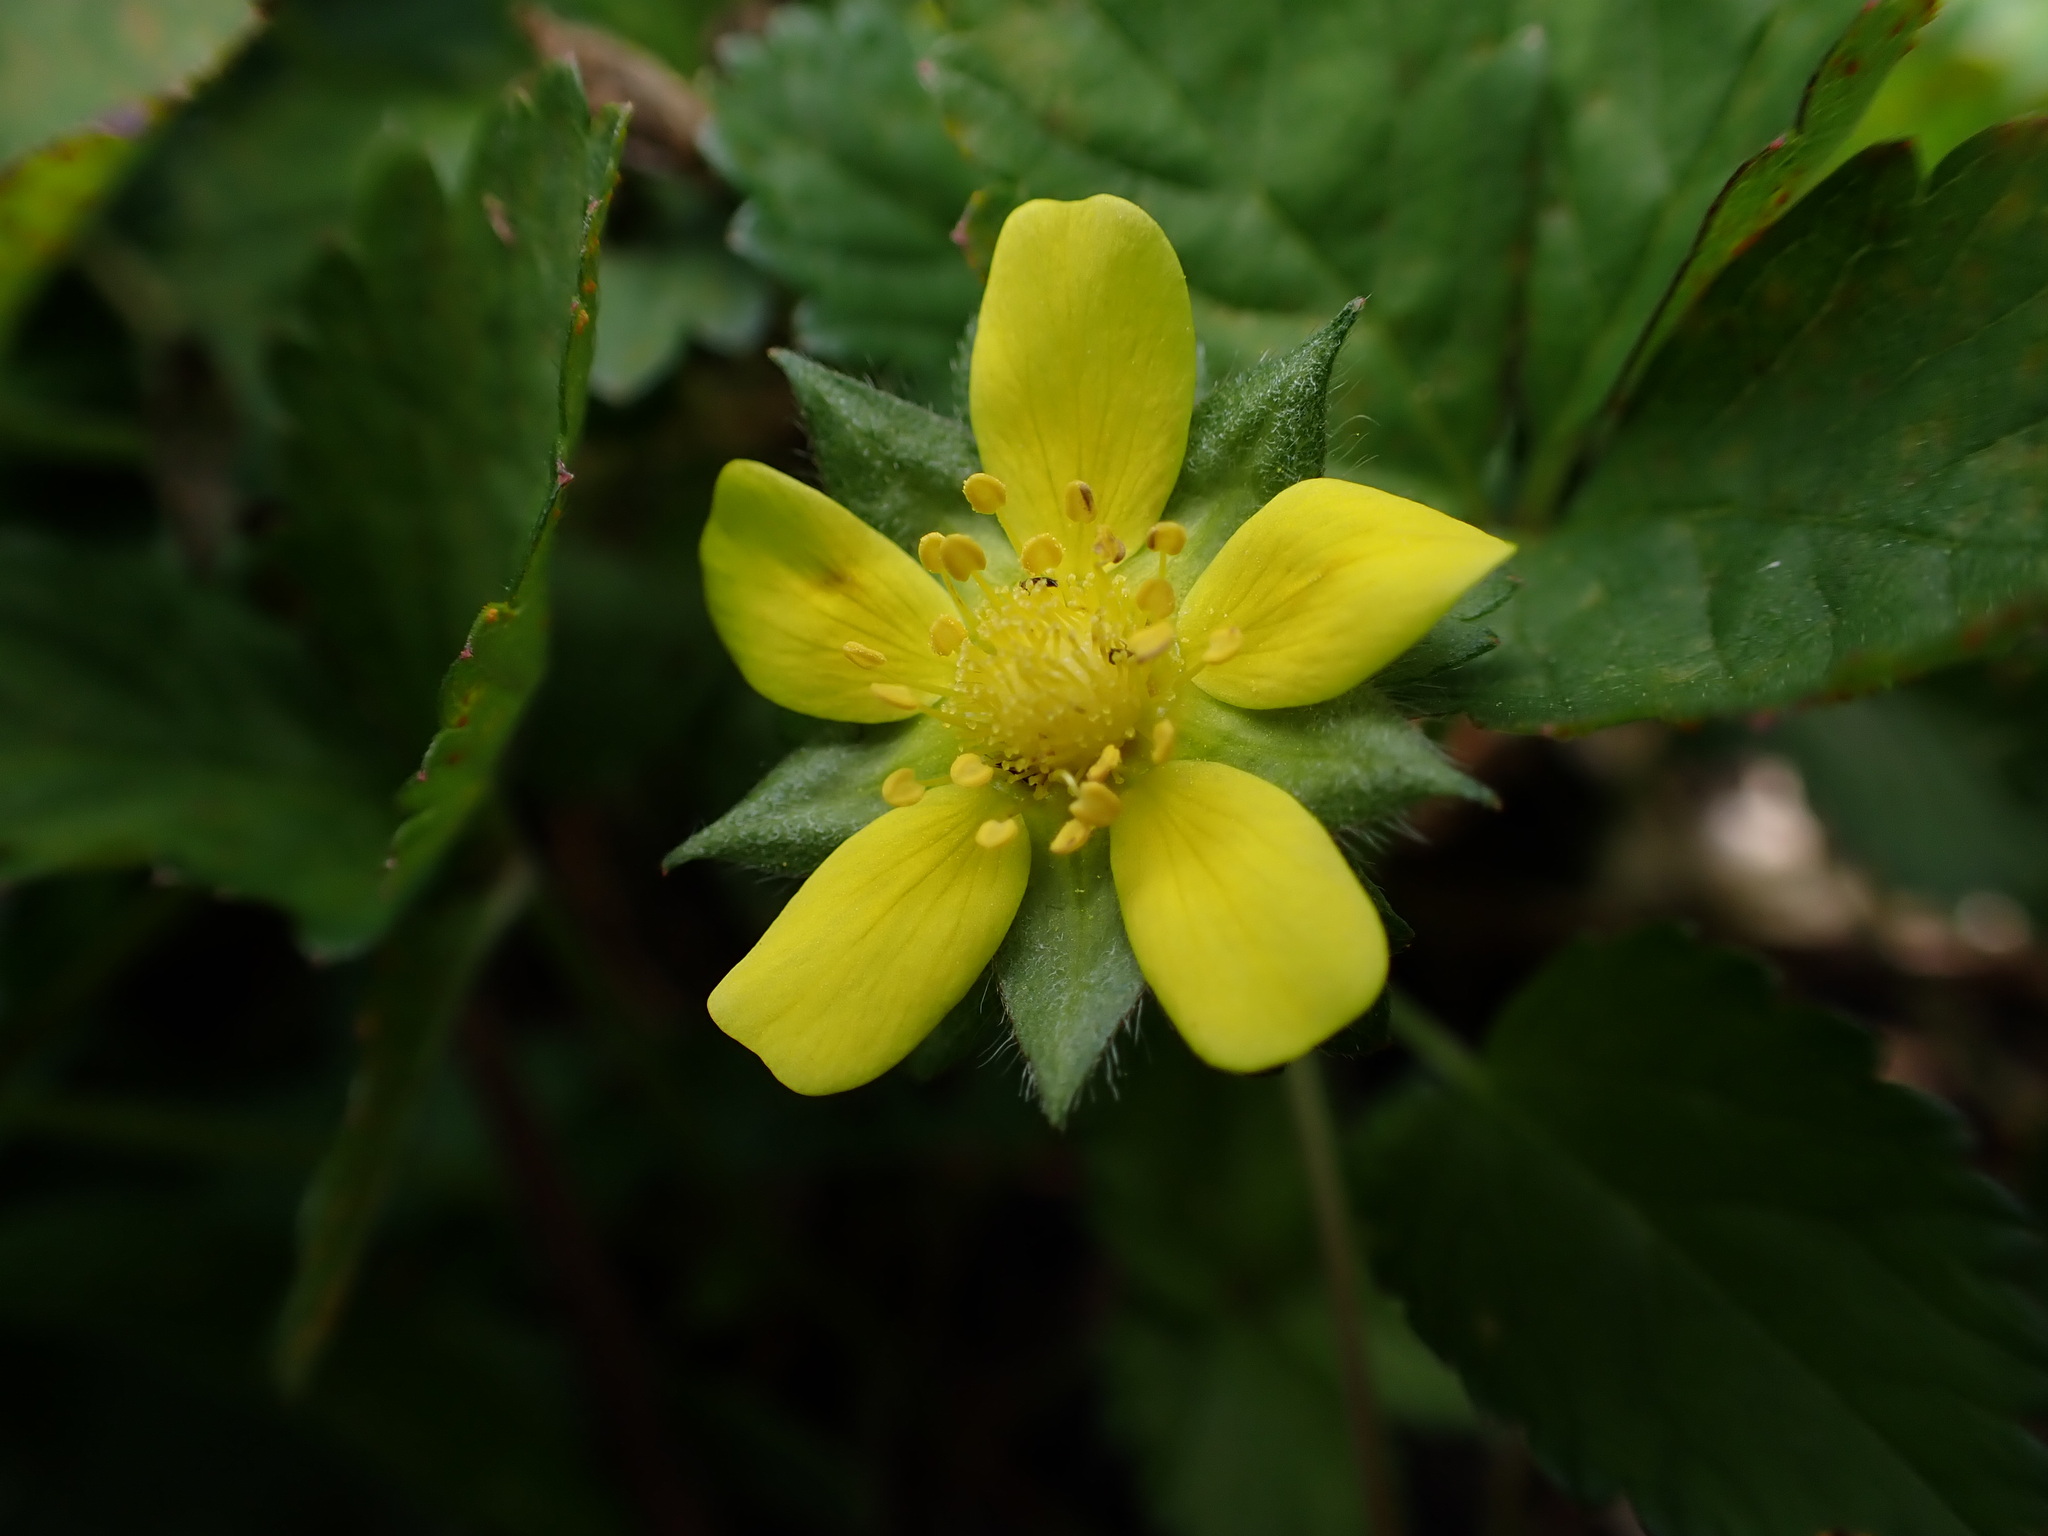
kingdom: Plantae
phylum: Tracheophyta
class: Magnoliopsida
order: Rosales
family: Rosaceae
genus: Potentilla
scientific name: Potentilla indica
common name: Yellow-flowered strawberry
